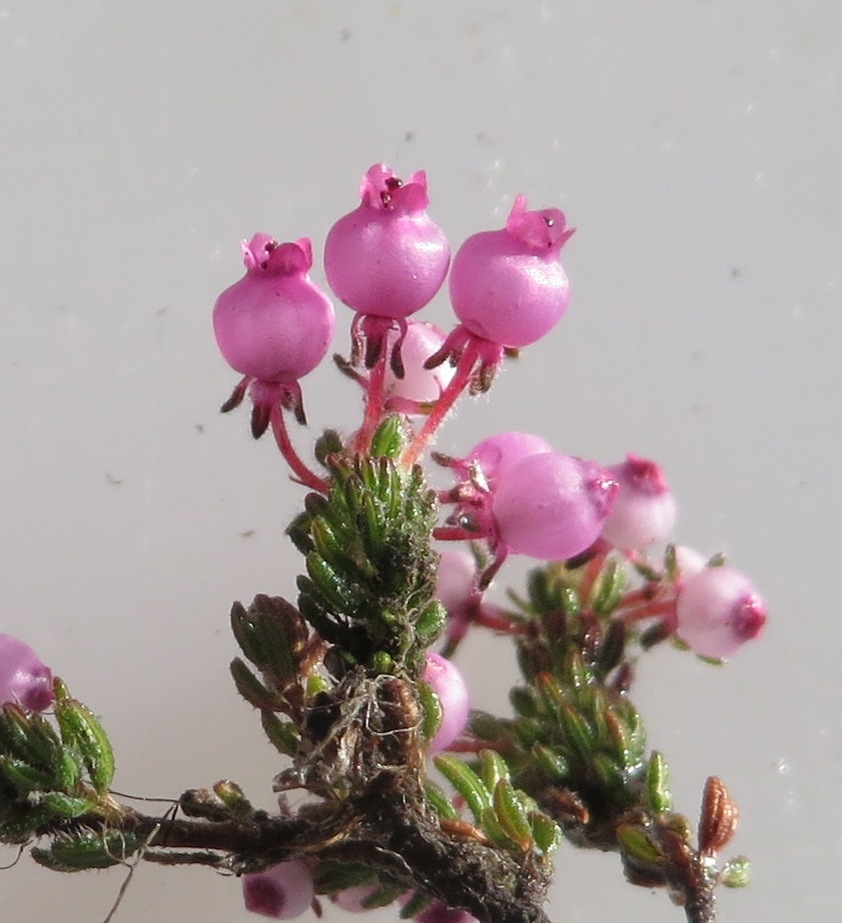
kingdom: Plantae
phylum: Tracheophyta
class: Magnoliopsida
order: Ericales
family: Ericaceae
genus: Erica
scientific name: Erica bergiana
